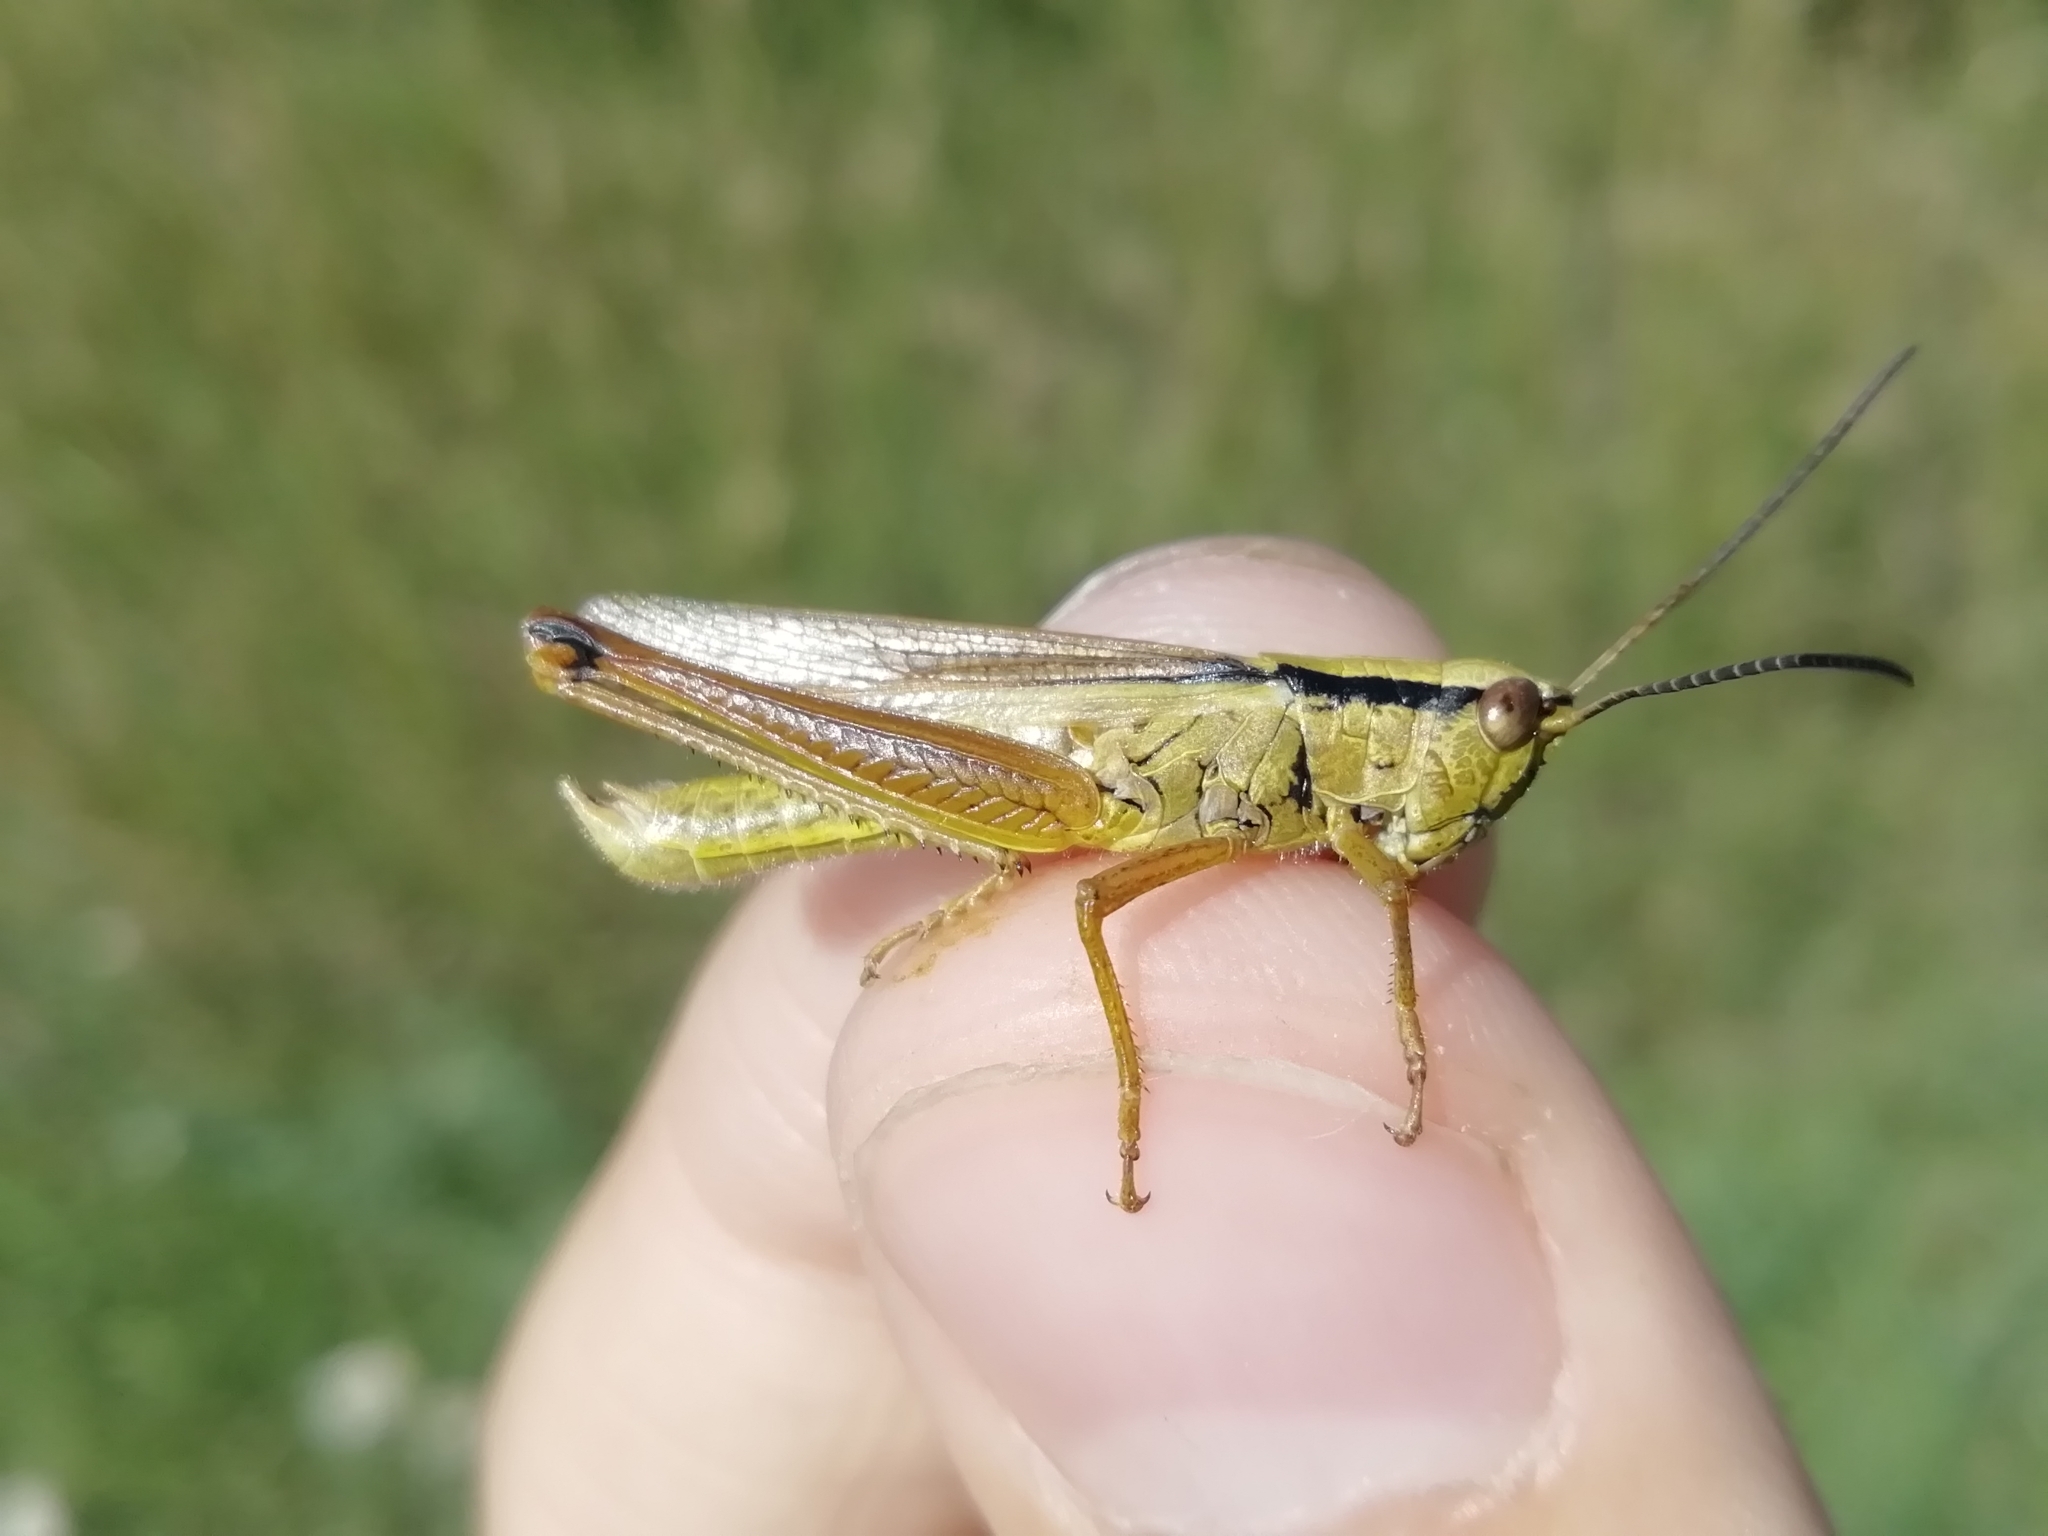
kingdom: Animalia
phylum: Arthropoda
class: Insecta
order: Orthoptera
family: Acrididae
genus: Mecostethus
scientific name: Mecostethus parapleurus
